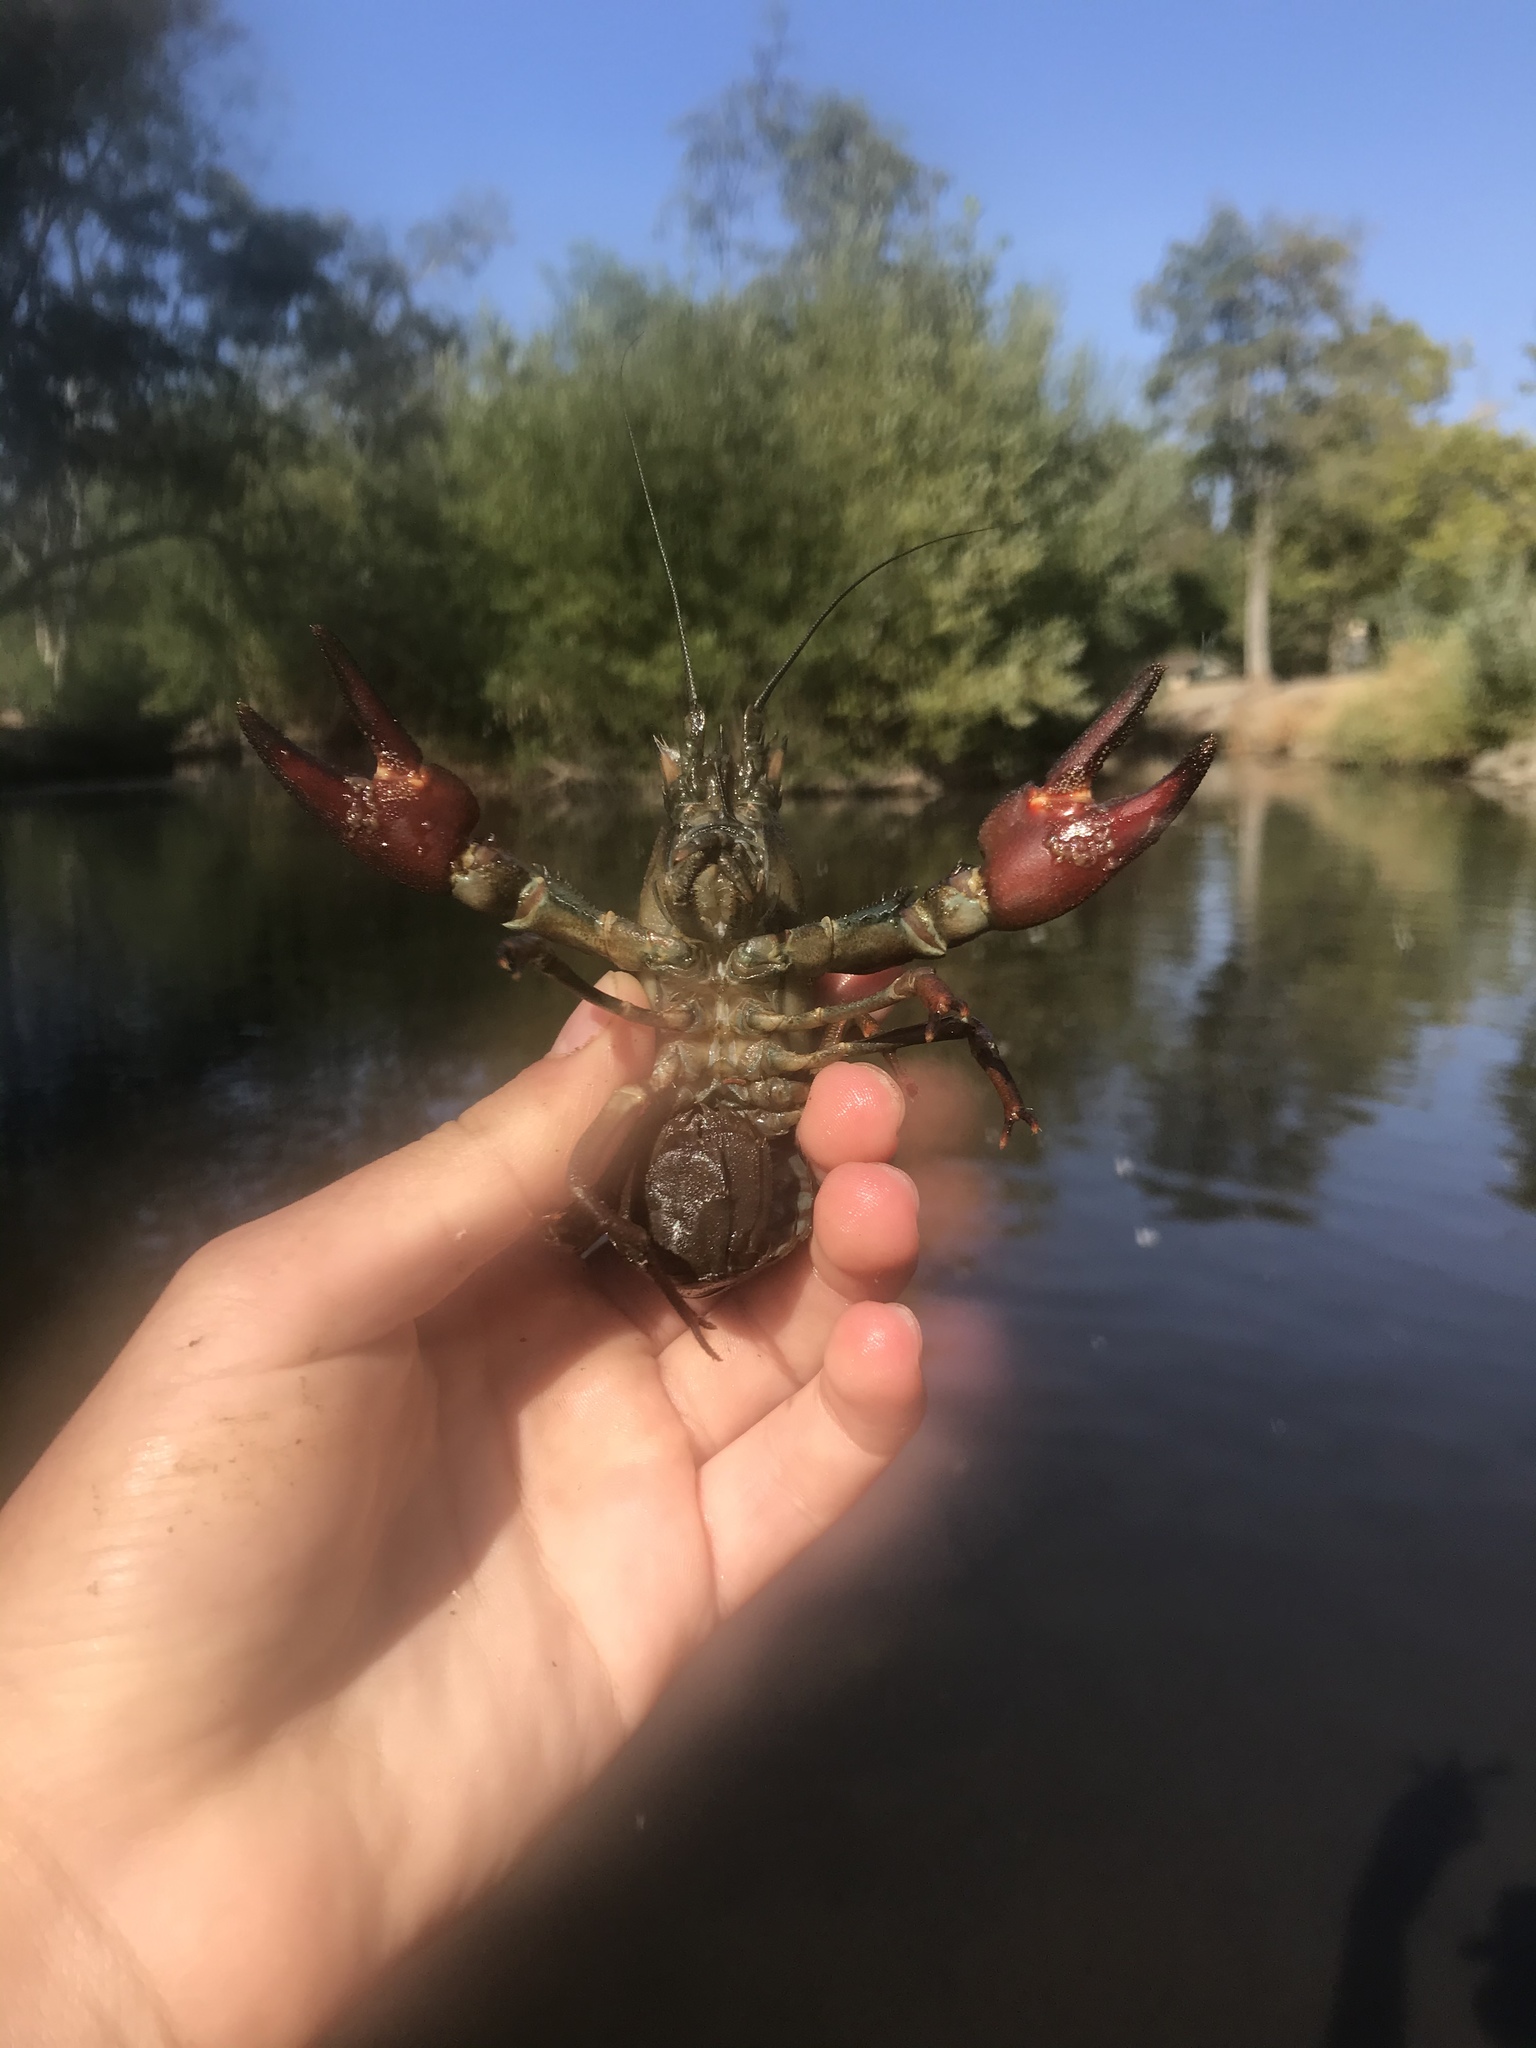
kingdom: Animalia
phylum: Arthropoda
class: Malacostraca
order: Decapoda
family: Astacidae
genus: Pacifastacus
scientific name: Pacifastacus leniusculus
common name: Signal crayfish
